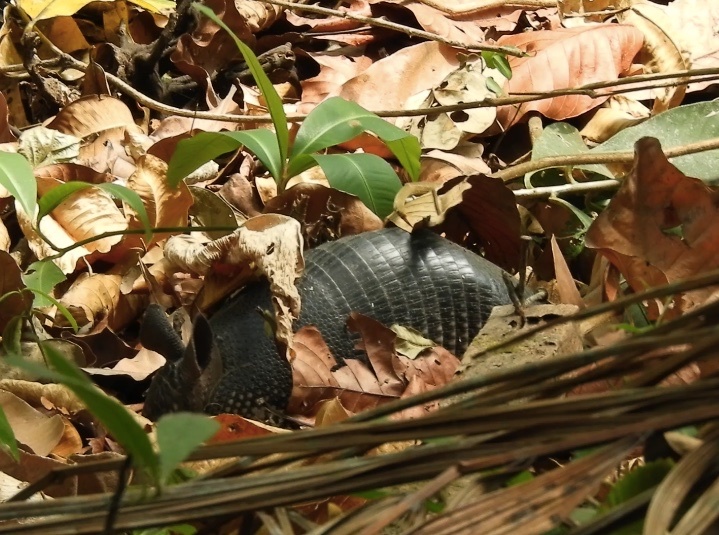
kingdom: Animalia
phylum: Chordata
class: Mammalia
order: Cingulata
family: Dasypodidae
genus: Dasypus
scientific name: Dasypus novemcinctus
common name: Nine-banded armadillo
